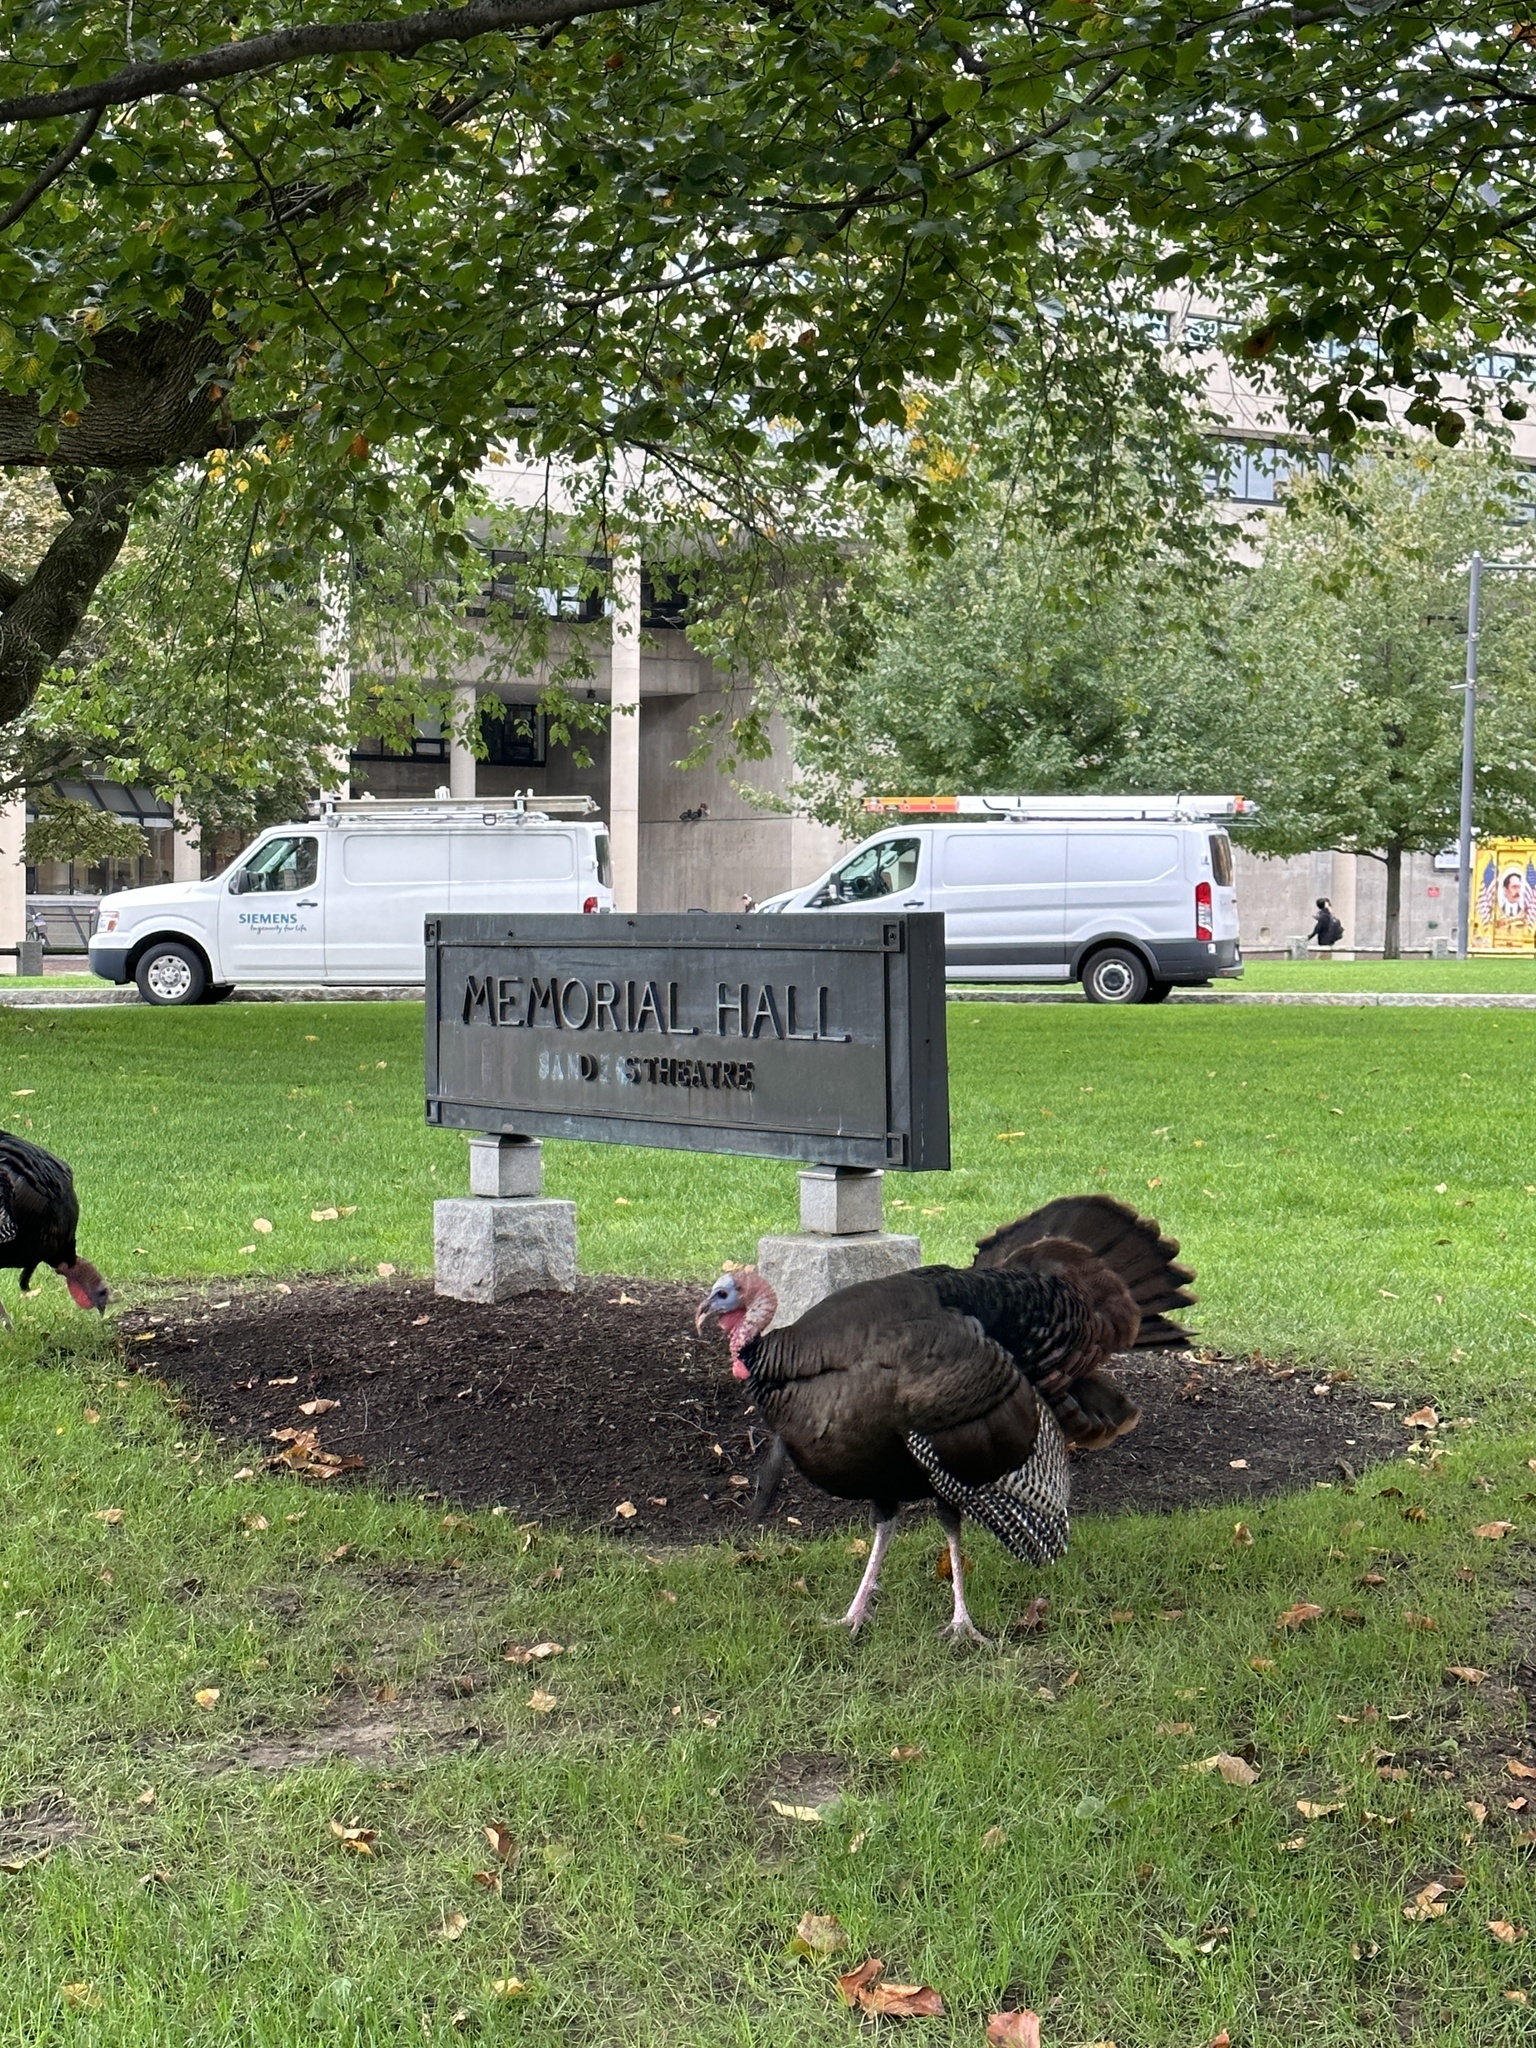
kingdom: Animalia
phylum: Chordata
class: Aves
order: Galliformes
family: Phasianidae
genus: Meleagris
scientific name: Meleagris gallopavo
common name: Wild turkey
